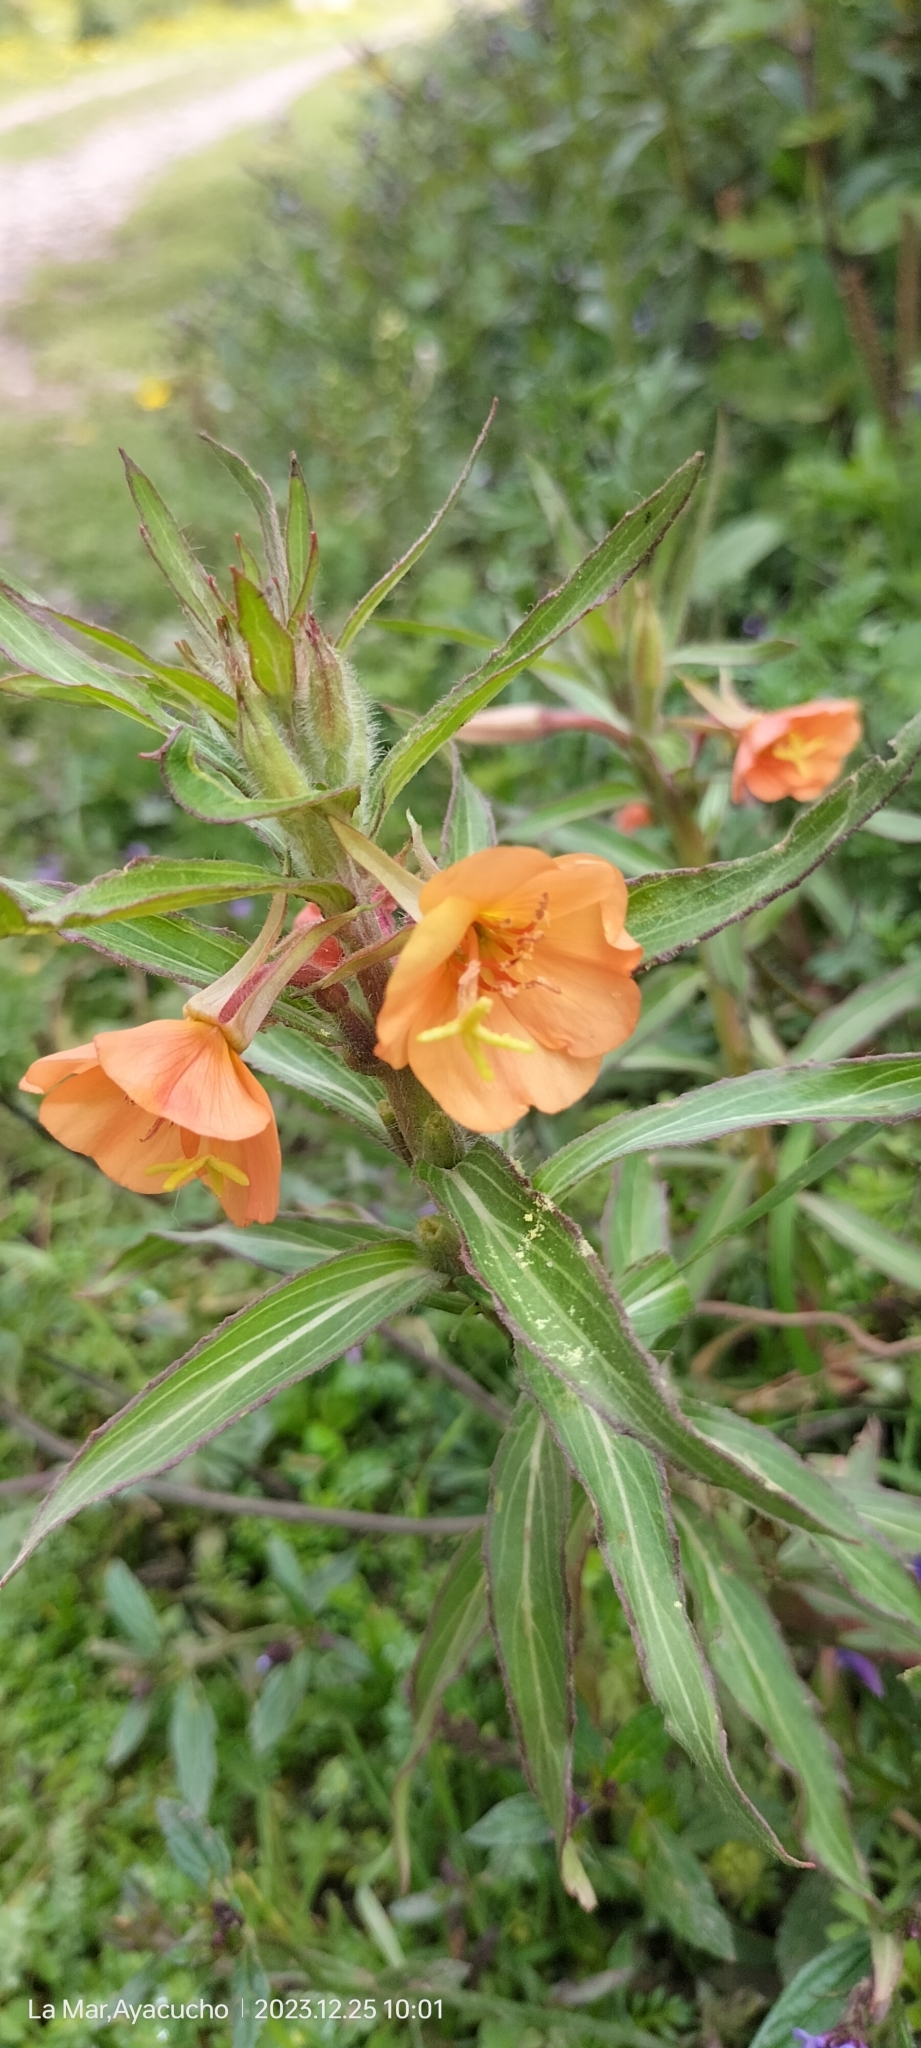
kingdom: Plantae
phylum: Tracheophyta
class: Magnoliopsida
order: Myrtales
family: Onagraceae
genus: Oenothera
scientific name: Oenothera versicolor
